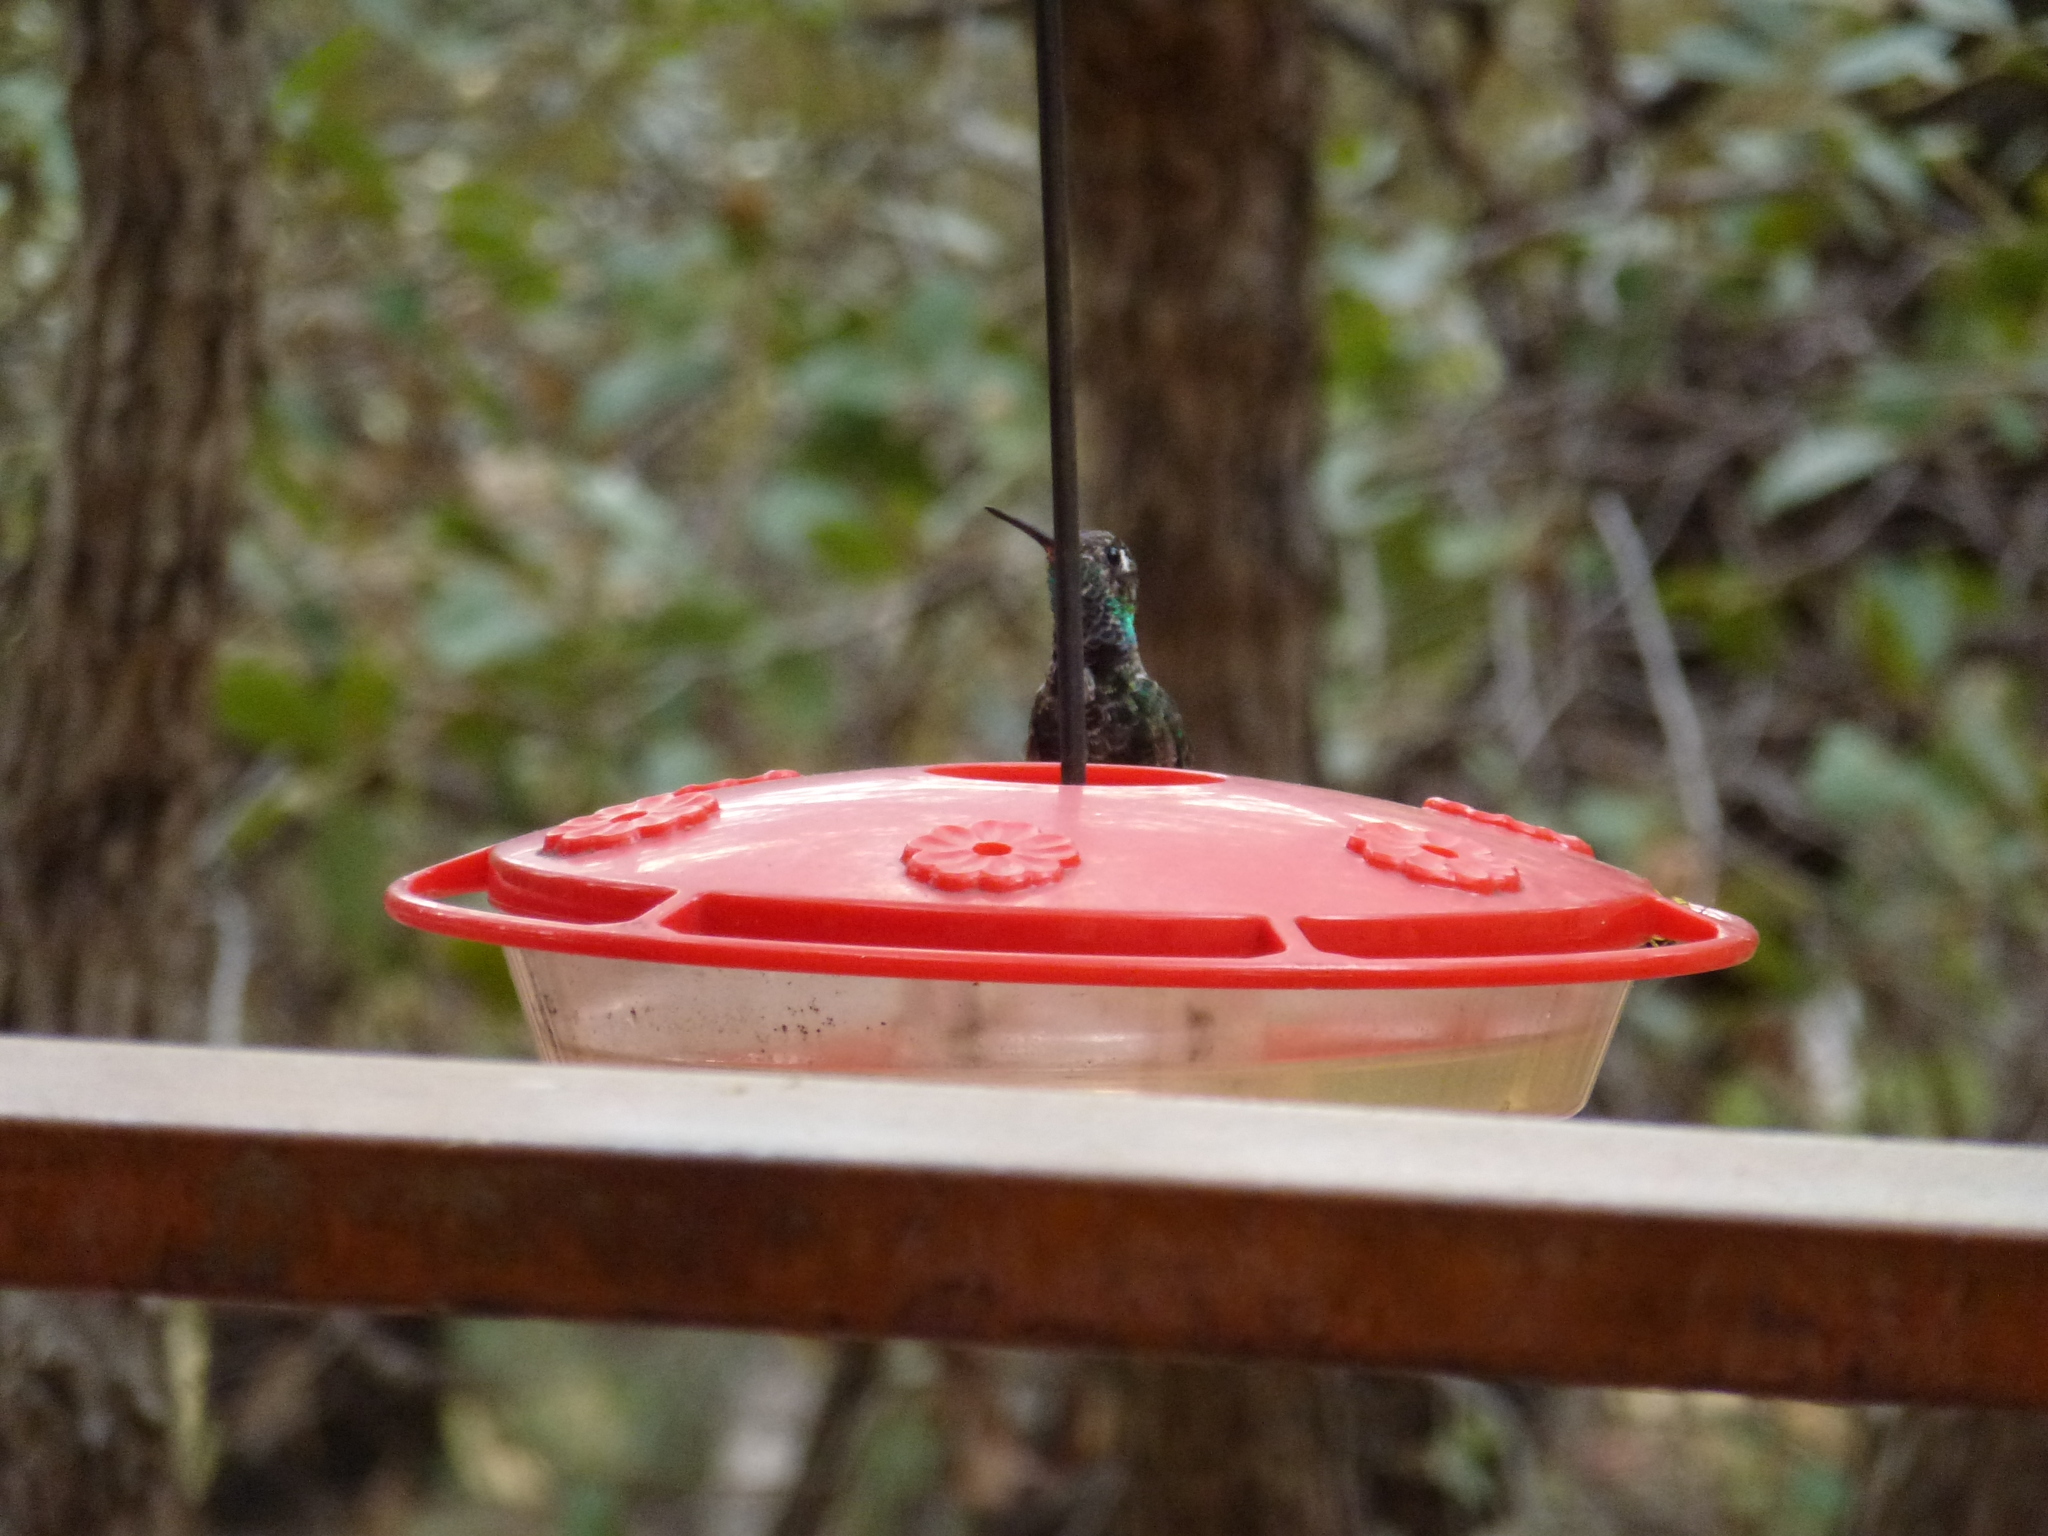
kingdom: Animalia
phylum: Chordata
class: Aves
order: Apodiformes
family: Trochilidae
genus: Eugenes
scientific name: Eugenes fulgens
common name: Magnificent hummingbird
